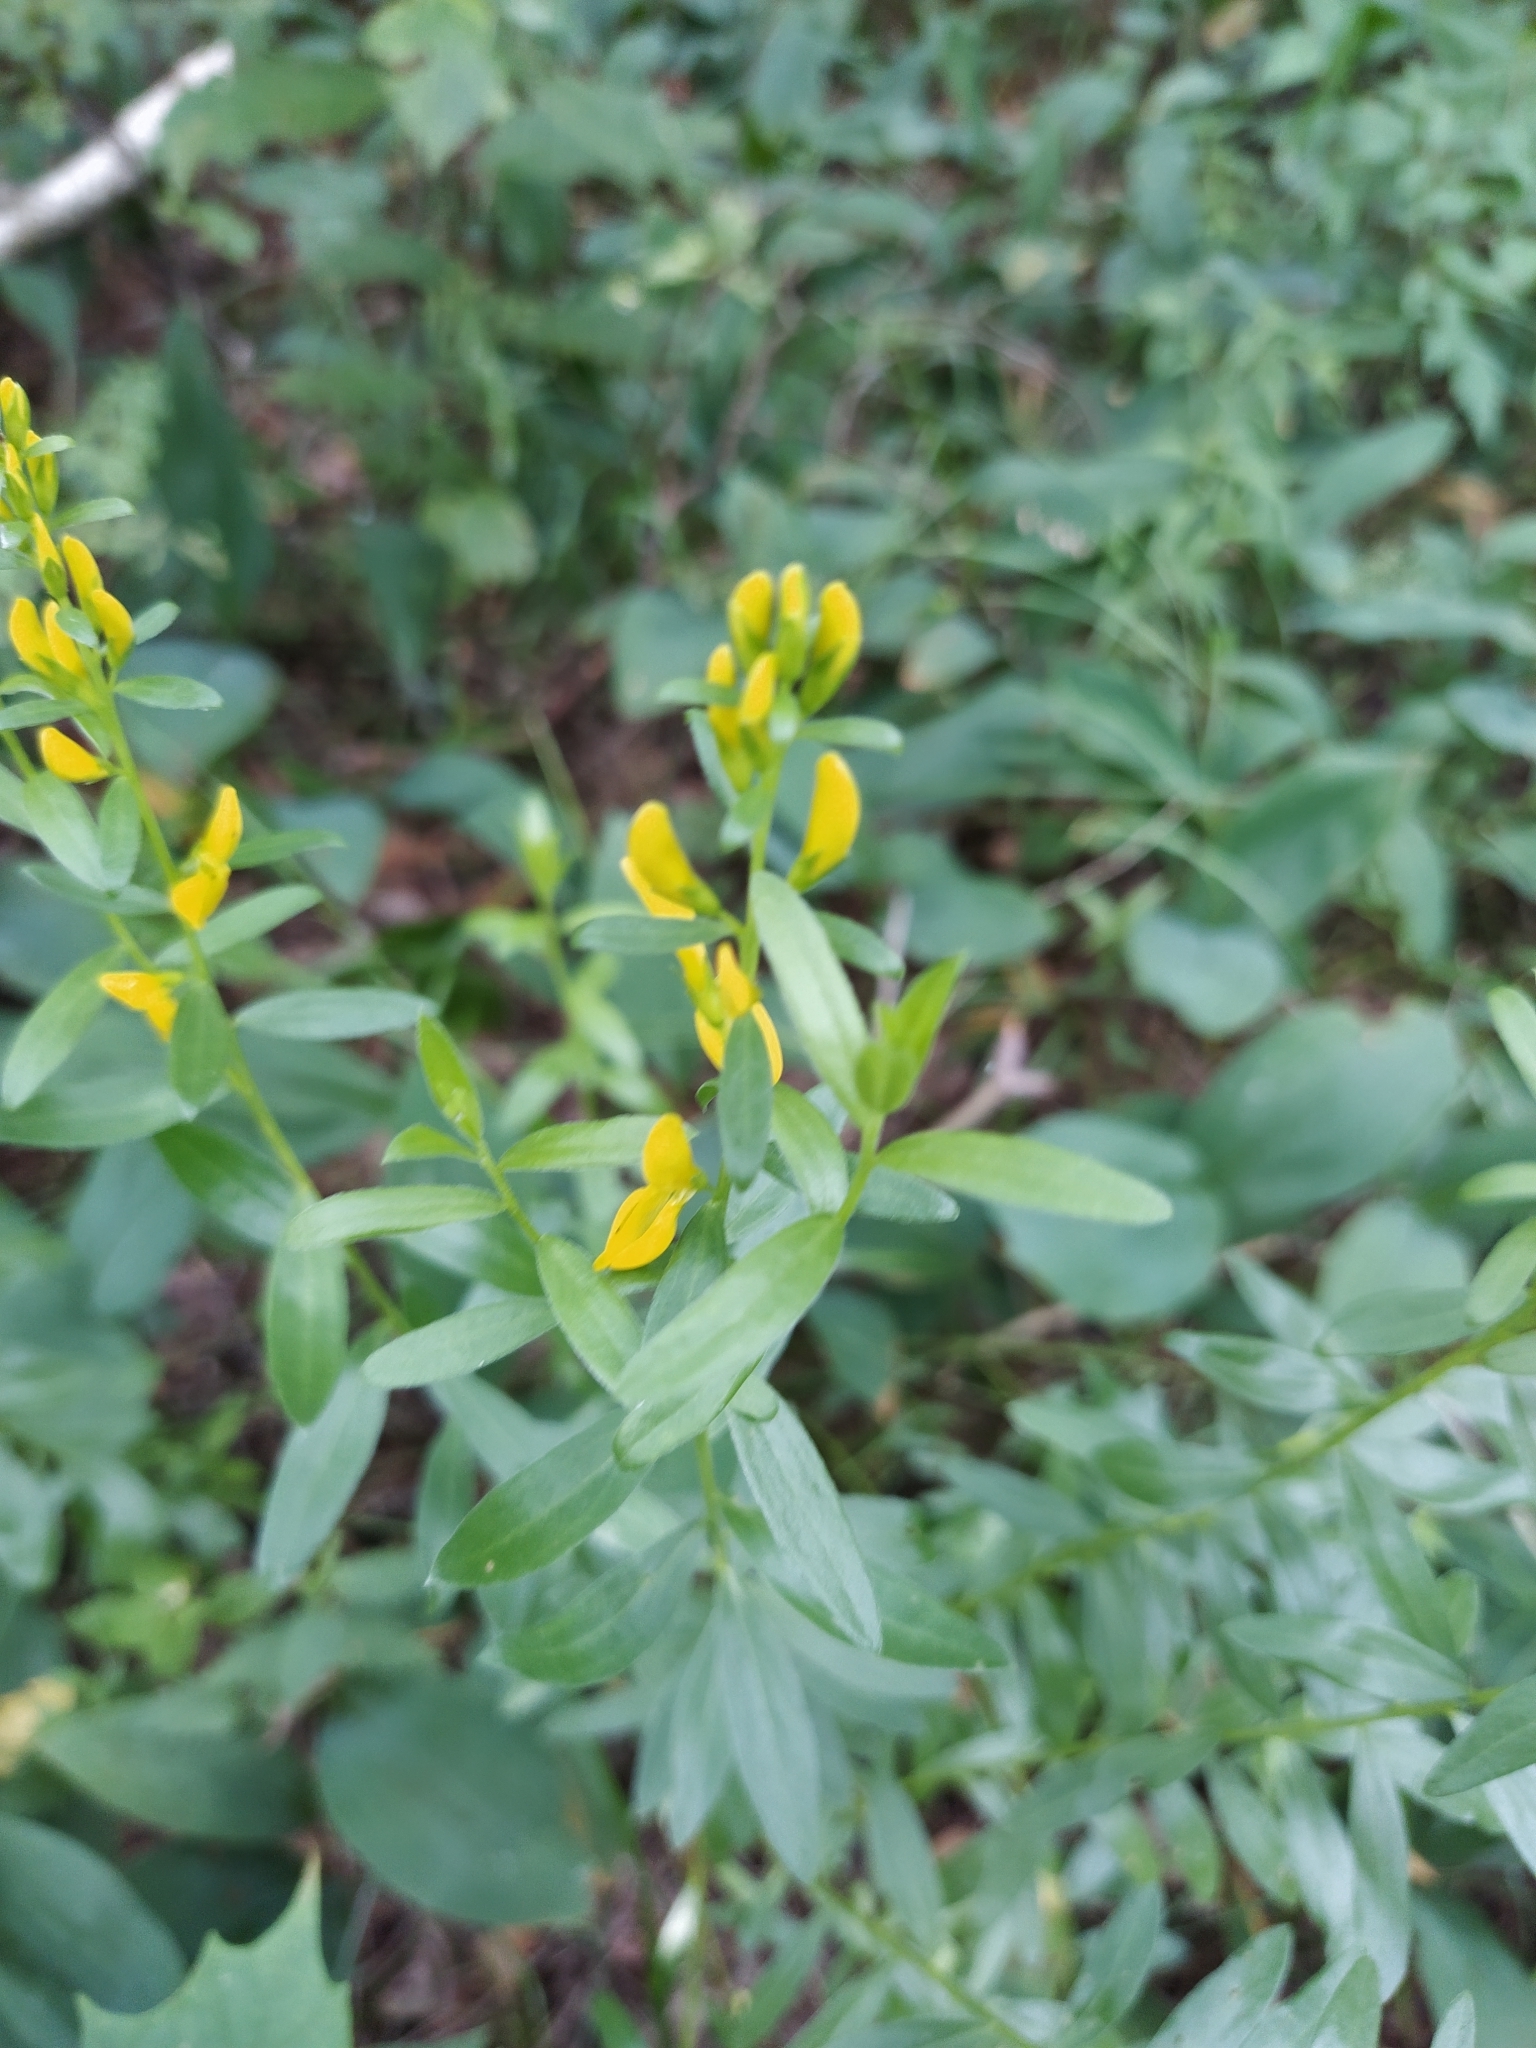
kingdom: Plantae
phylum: Tracheophyta
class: Magnoliopsida
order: Fabales
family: Fabaceae
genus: Genista
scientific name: Genista tinctoria
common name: Dyer's greenweed
